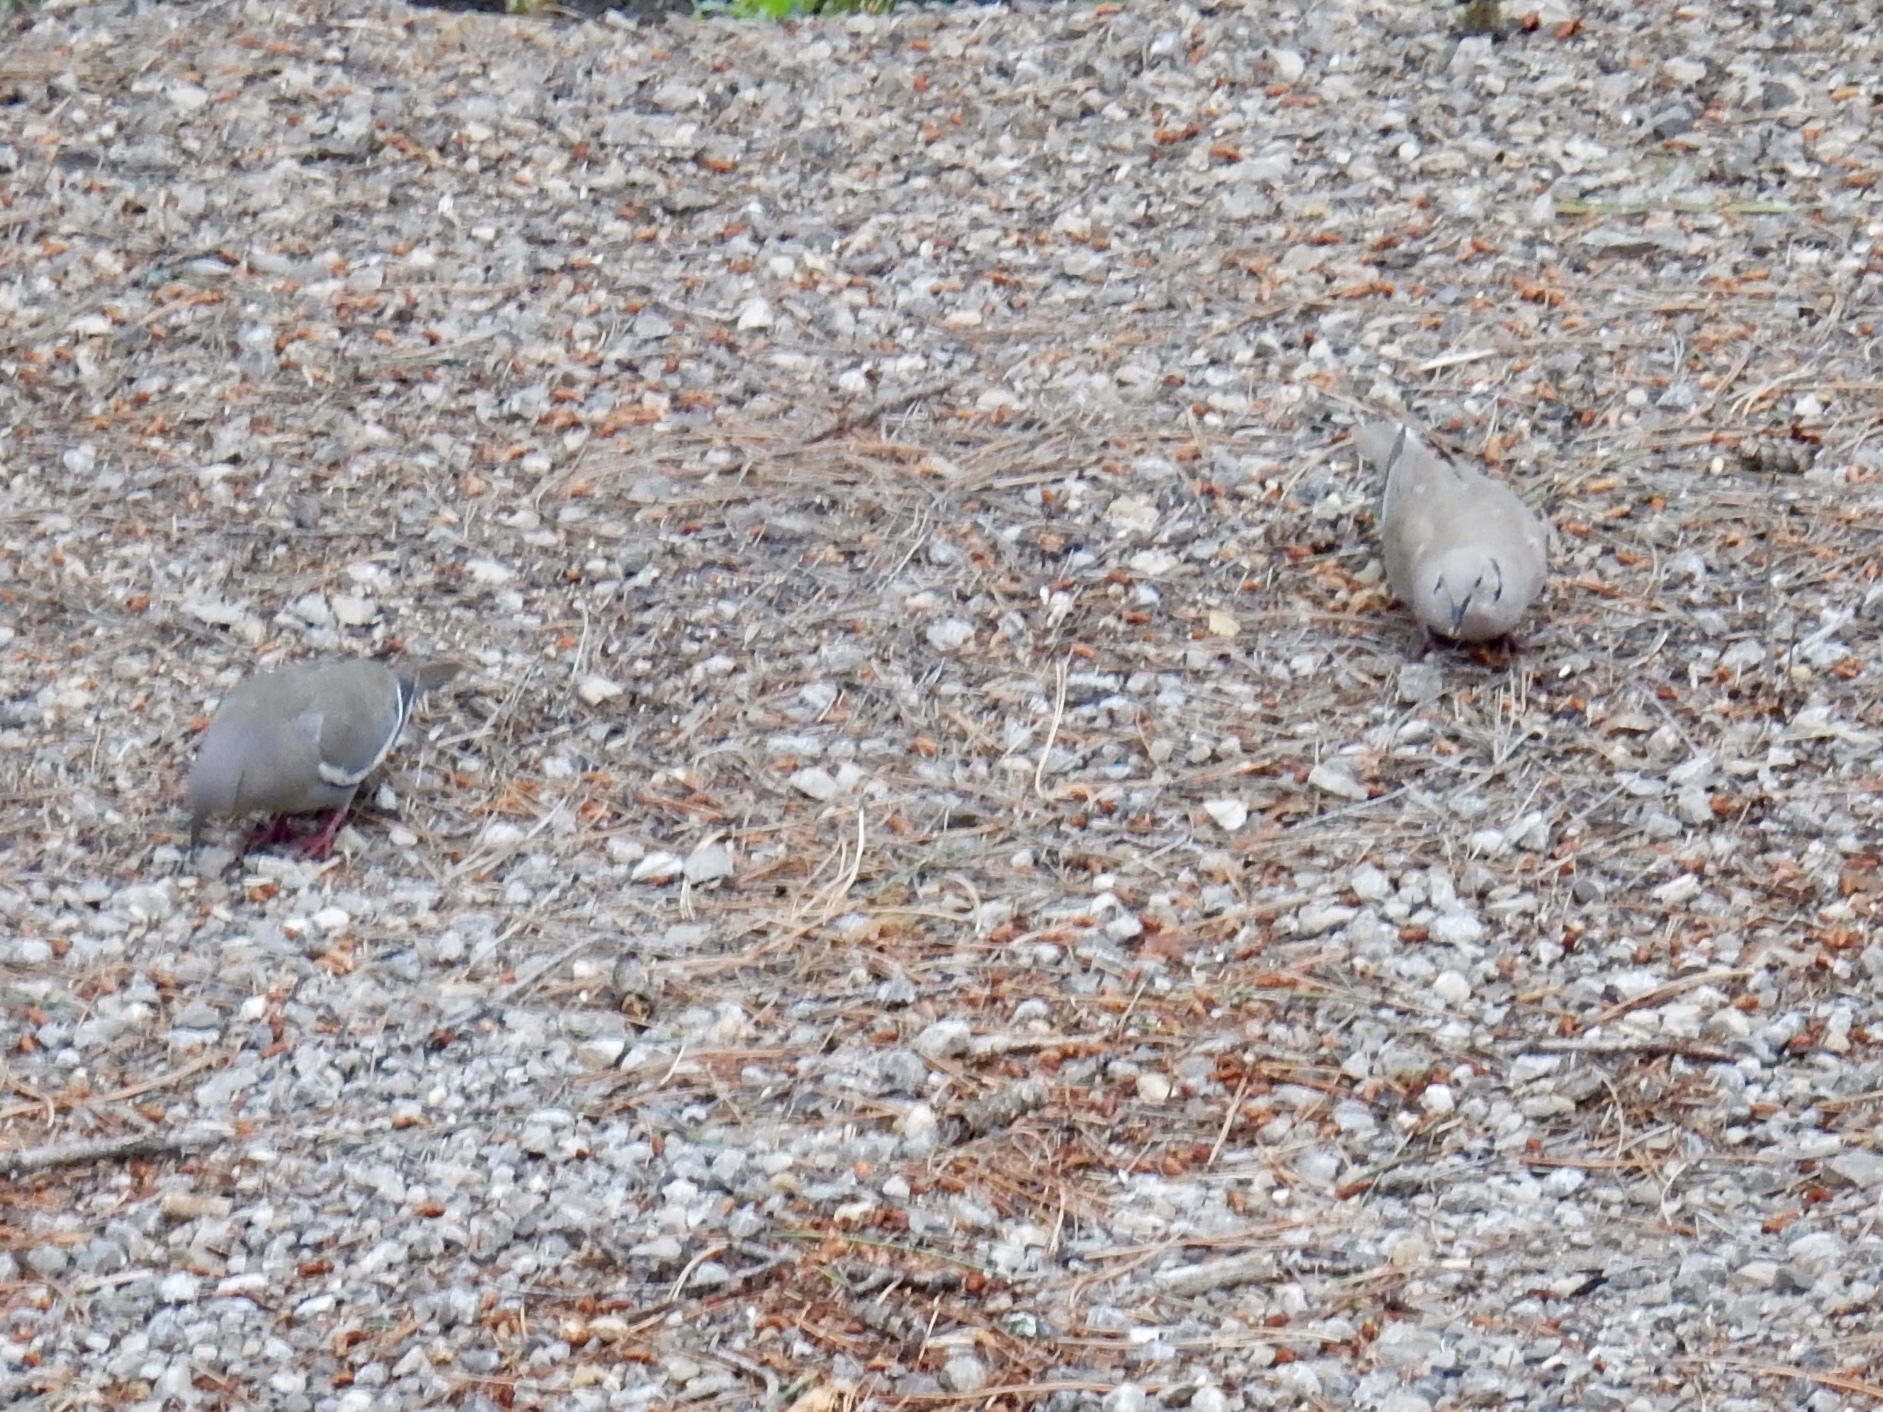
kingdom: Animalia
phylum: Chordata
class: Aves
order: Columbiformes
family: Columbidae
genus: Zenaida
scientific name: Zenaida asiatica
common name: White-winged dove
